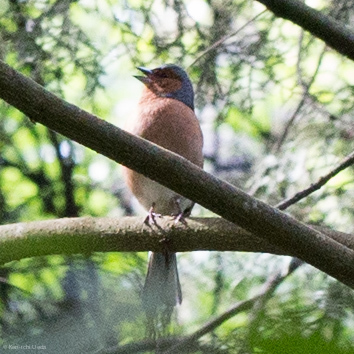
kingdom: Animalia
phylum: Chordata
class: Aves
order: Passeriformes
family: Fringillidae
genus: Fringilla
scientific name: Fringilla coelebs
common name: Common chaffinch
